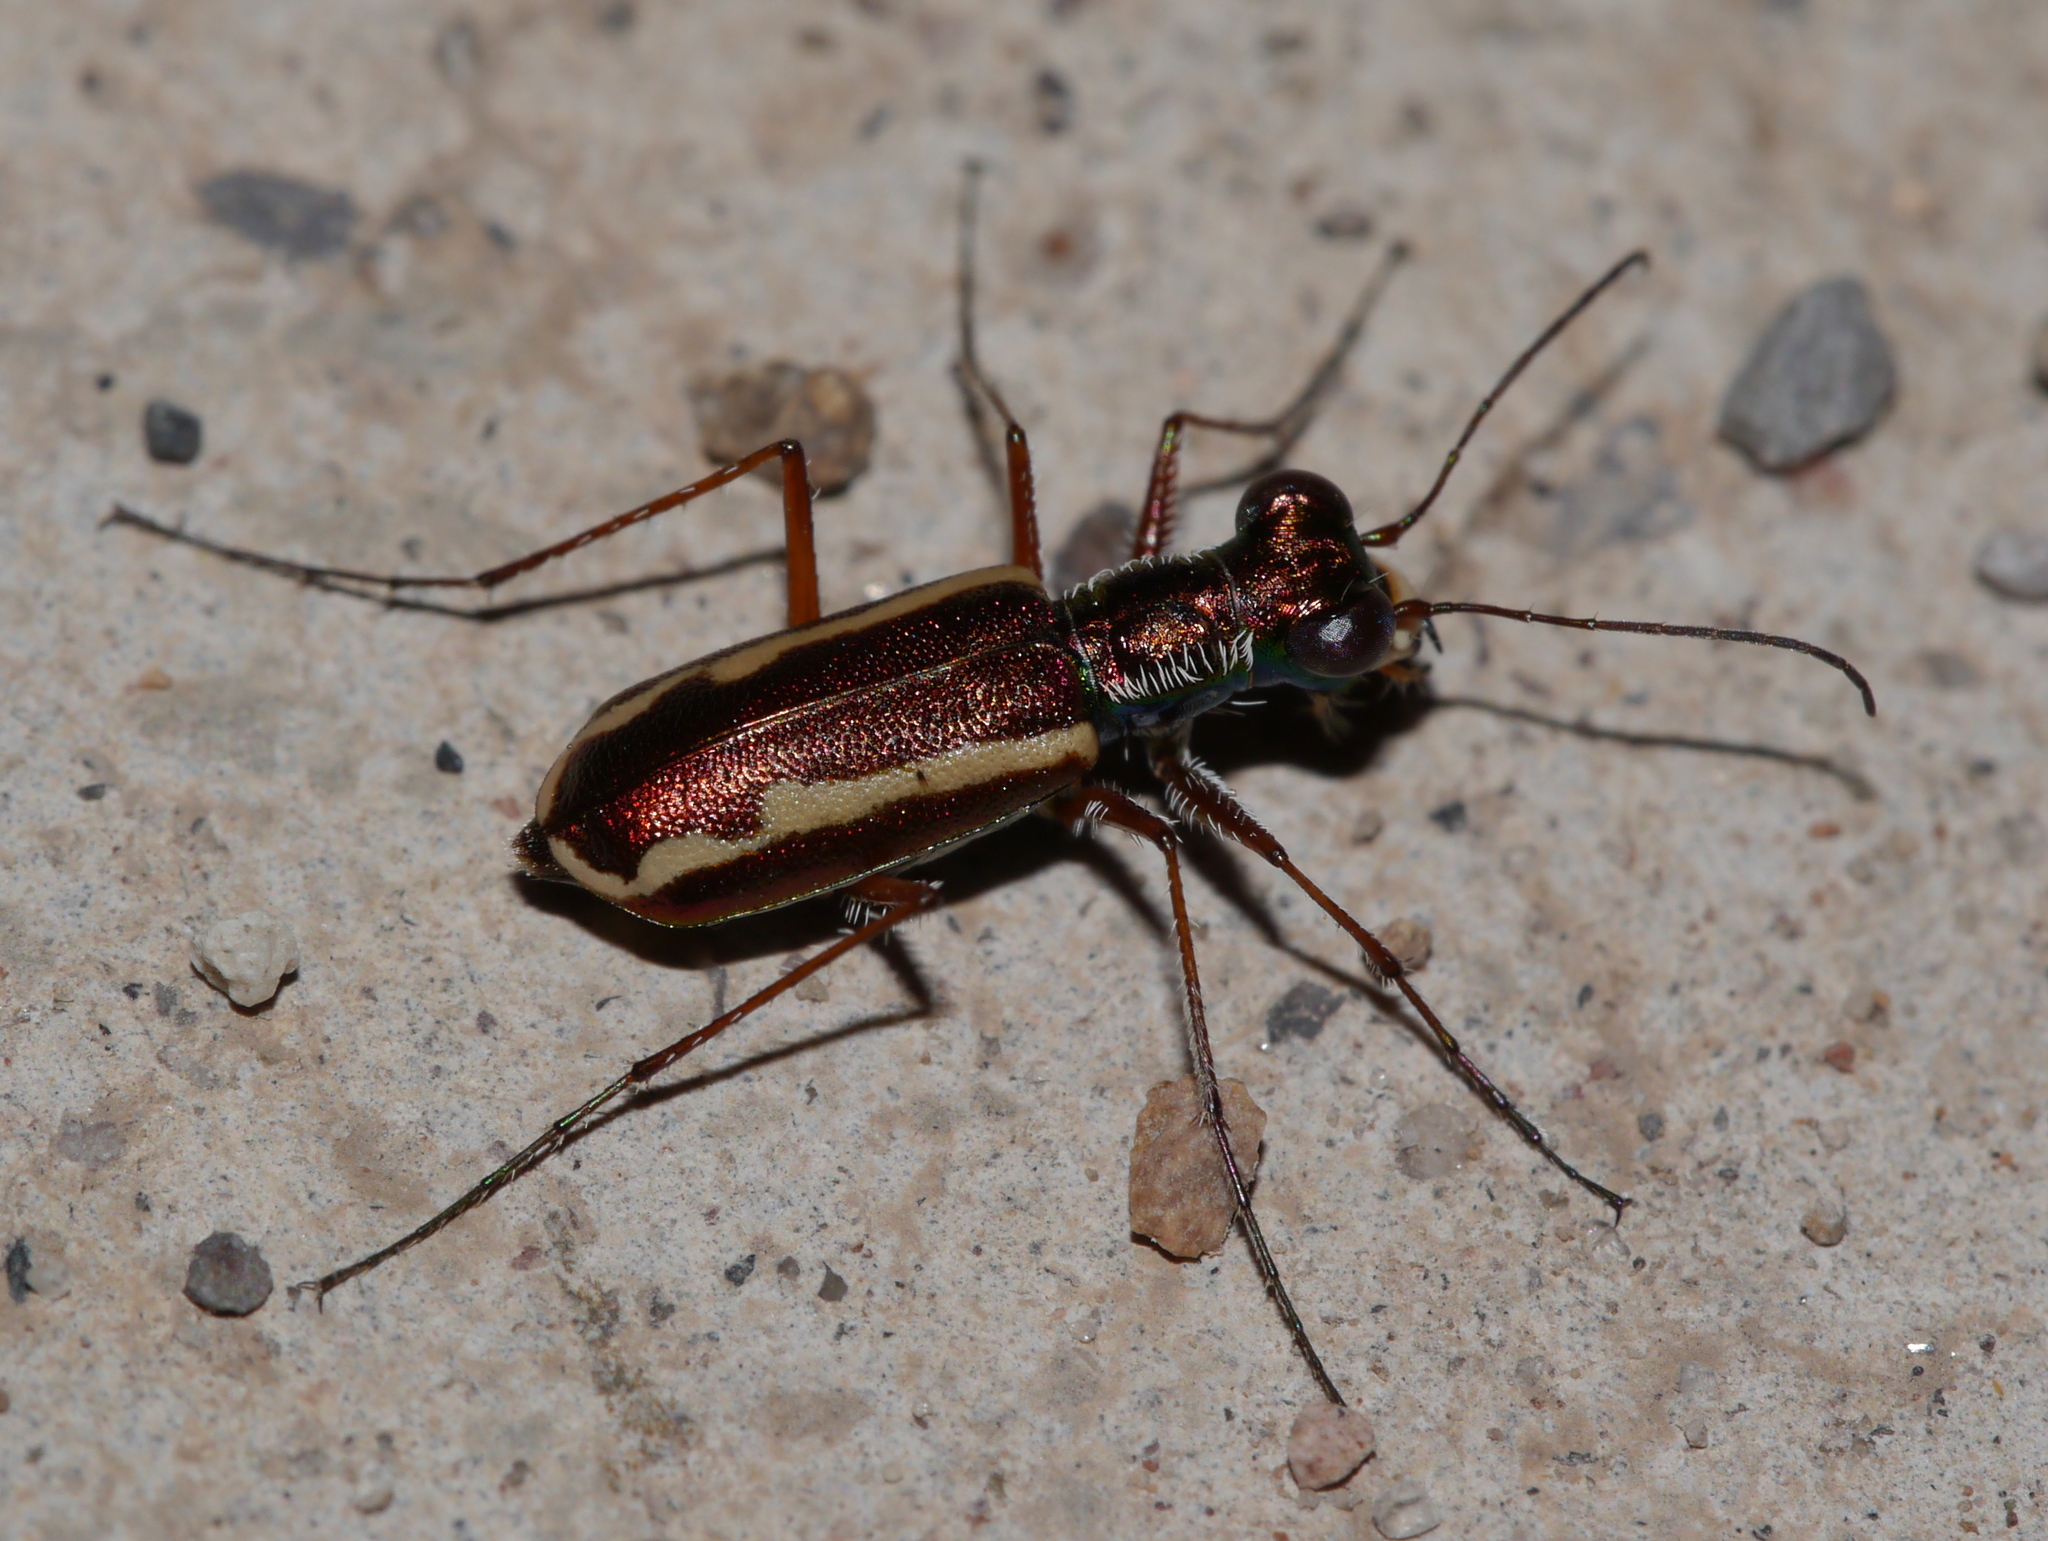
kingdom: Animalia
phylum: Arthropoda
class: Insecta
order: Coleoptera
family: Carabidae
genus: Cylindera
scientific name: Cylindera lemniscata
